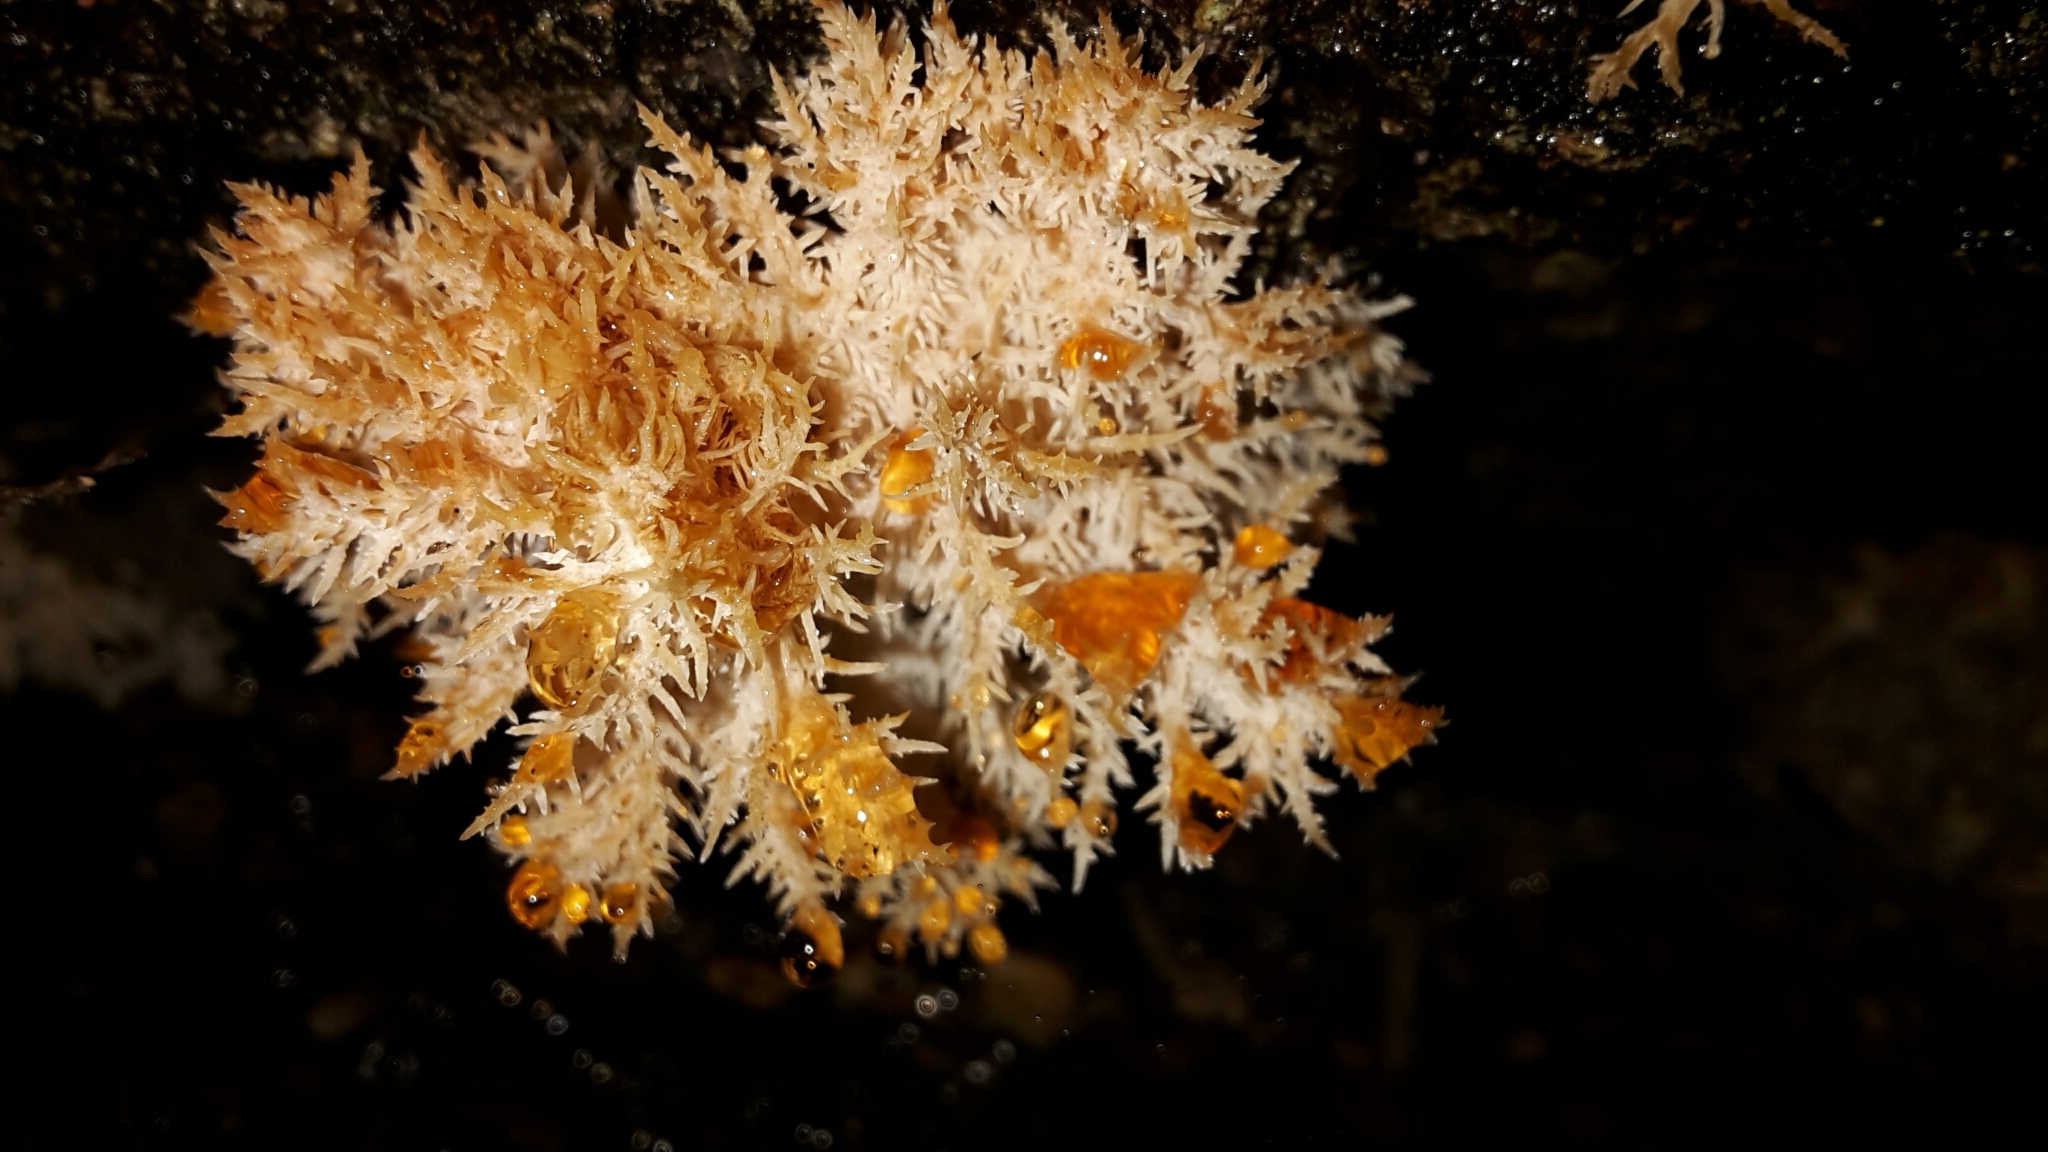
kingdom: Fungi
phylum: Basidiomycota
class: Agaricomycetes
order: Russulales
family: Hericiaceae
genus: Hericium
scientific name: Hericium novae-zealandiae
